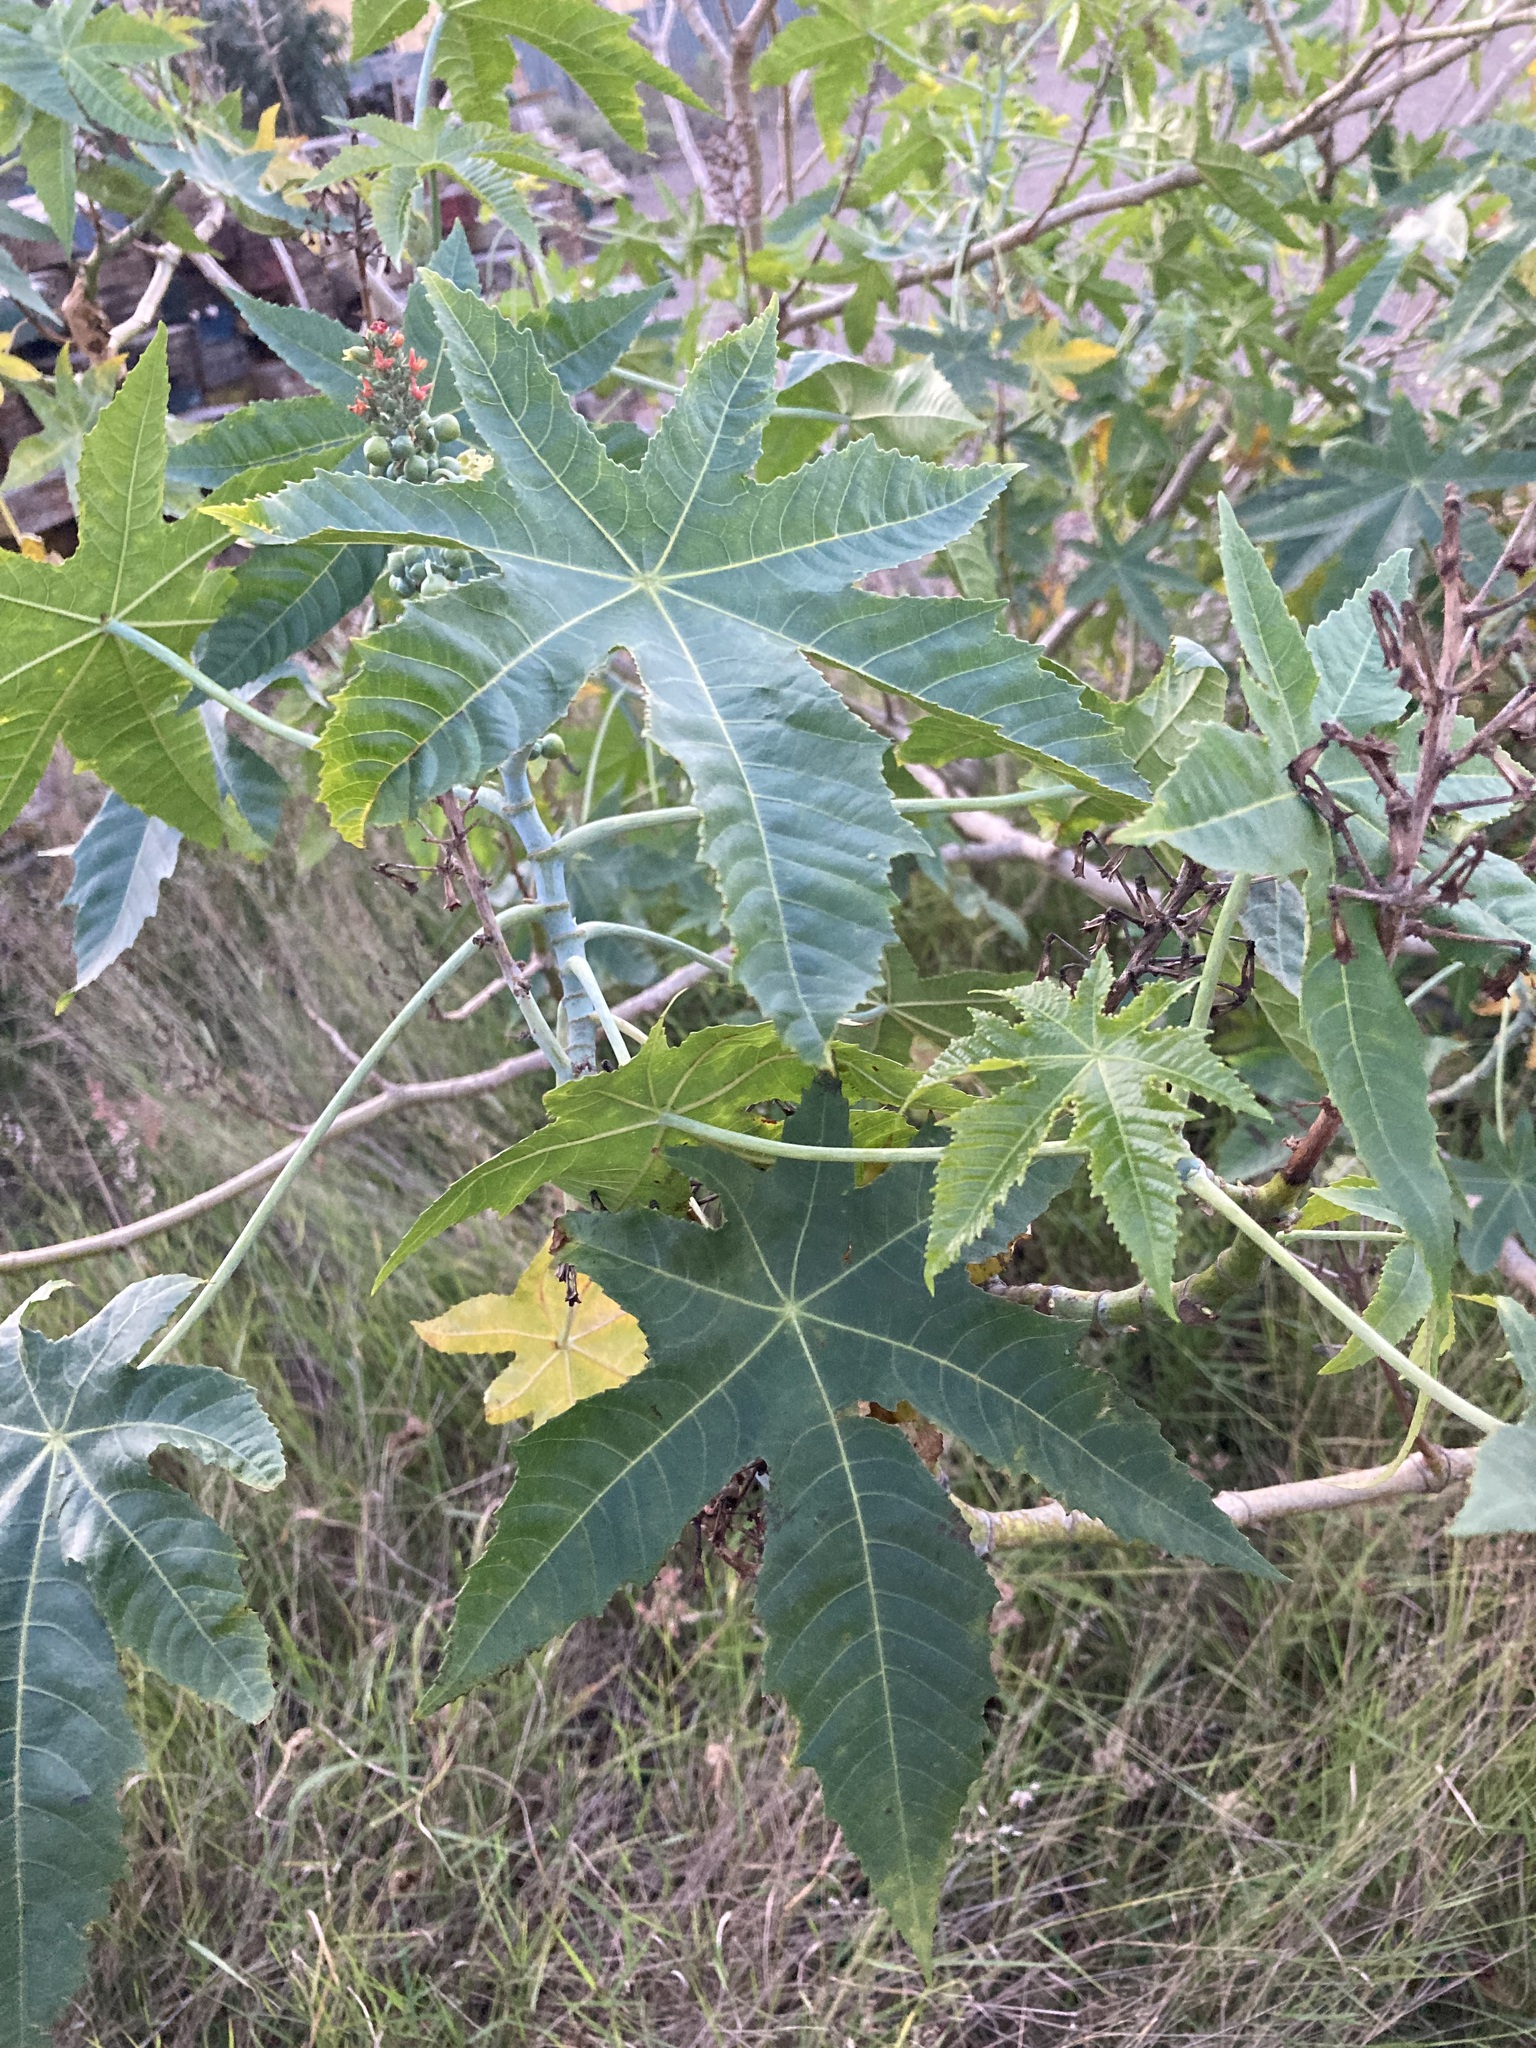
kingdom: Plantae
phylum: Tracheophyta
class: Magnoliopsida
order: Malpighiales
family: Euphorbiaceae
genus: Ricinus
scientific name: Ricinus communis
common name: Castor-oil-plant
